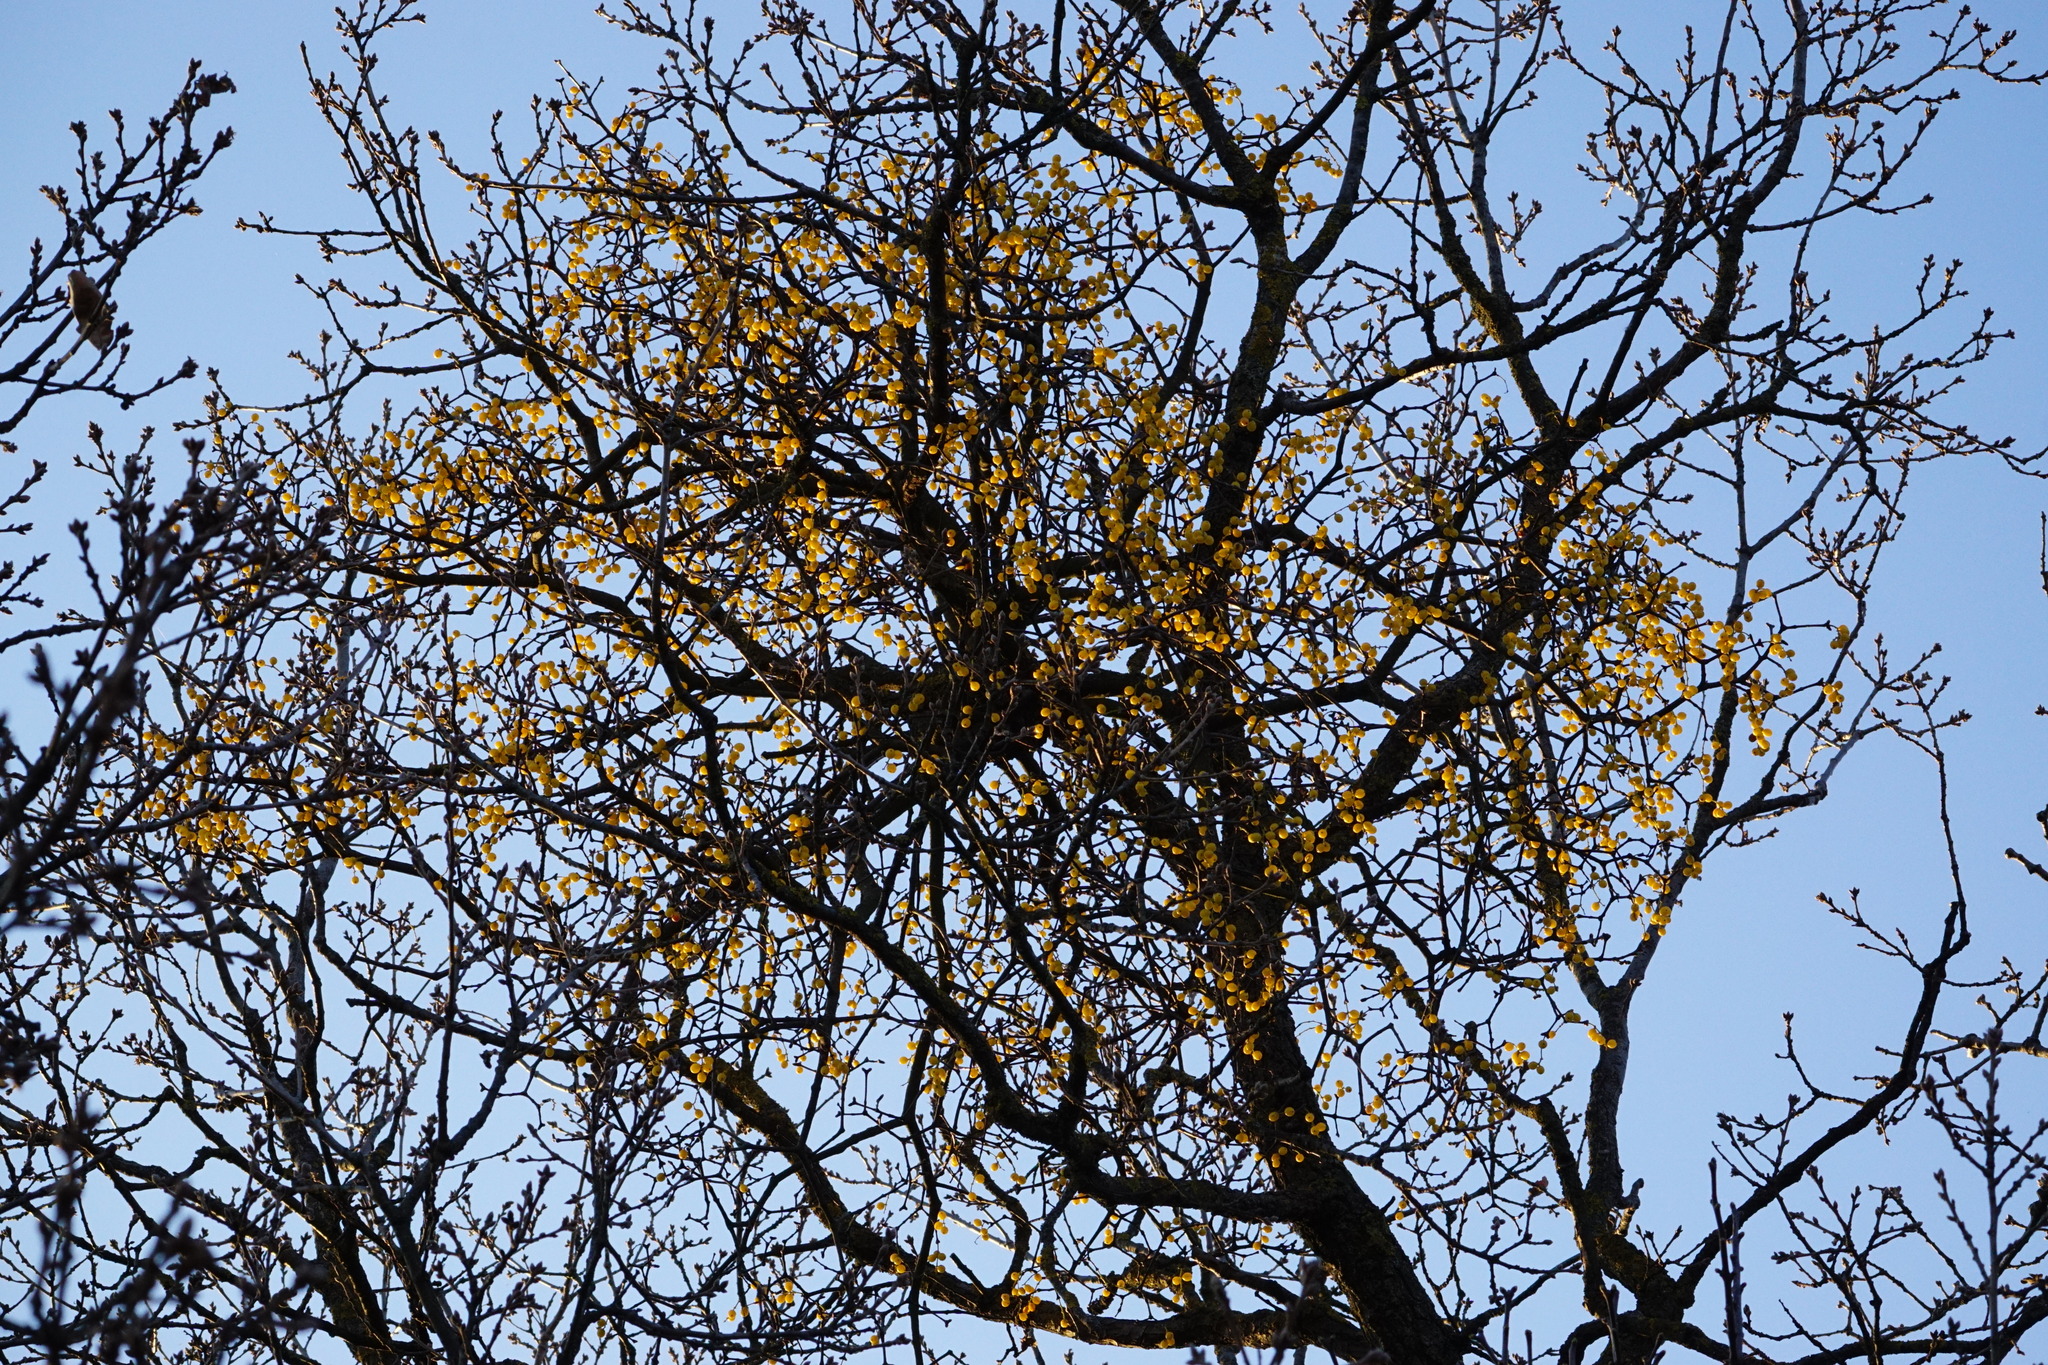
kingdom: Plantae
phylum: Tracheophyta
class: Magnoliopsida
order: Santalales
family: Loranthaceae
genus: Loranthus
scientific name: Loranthus europaeus
